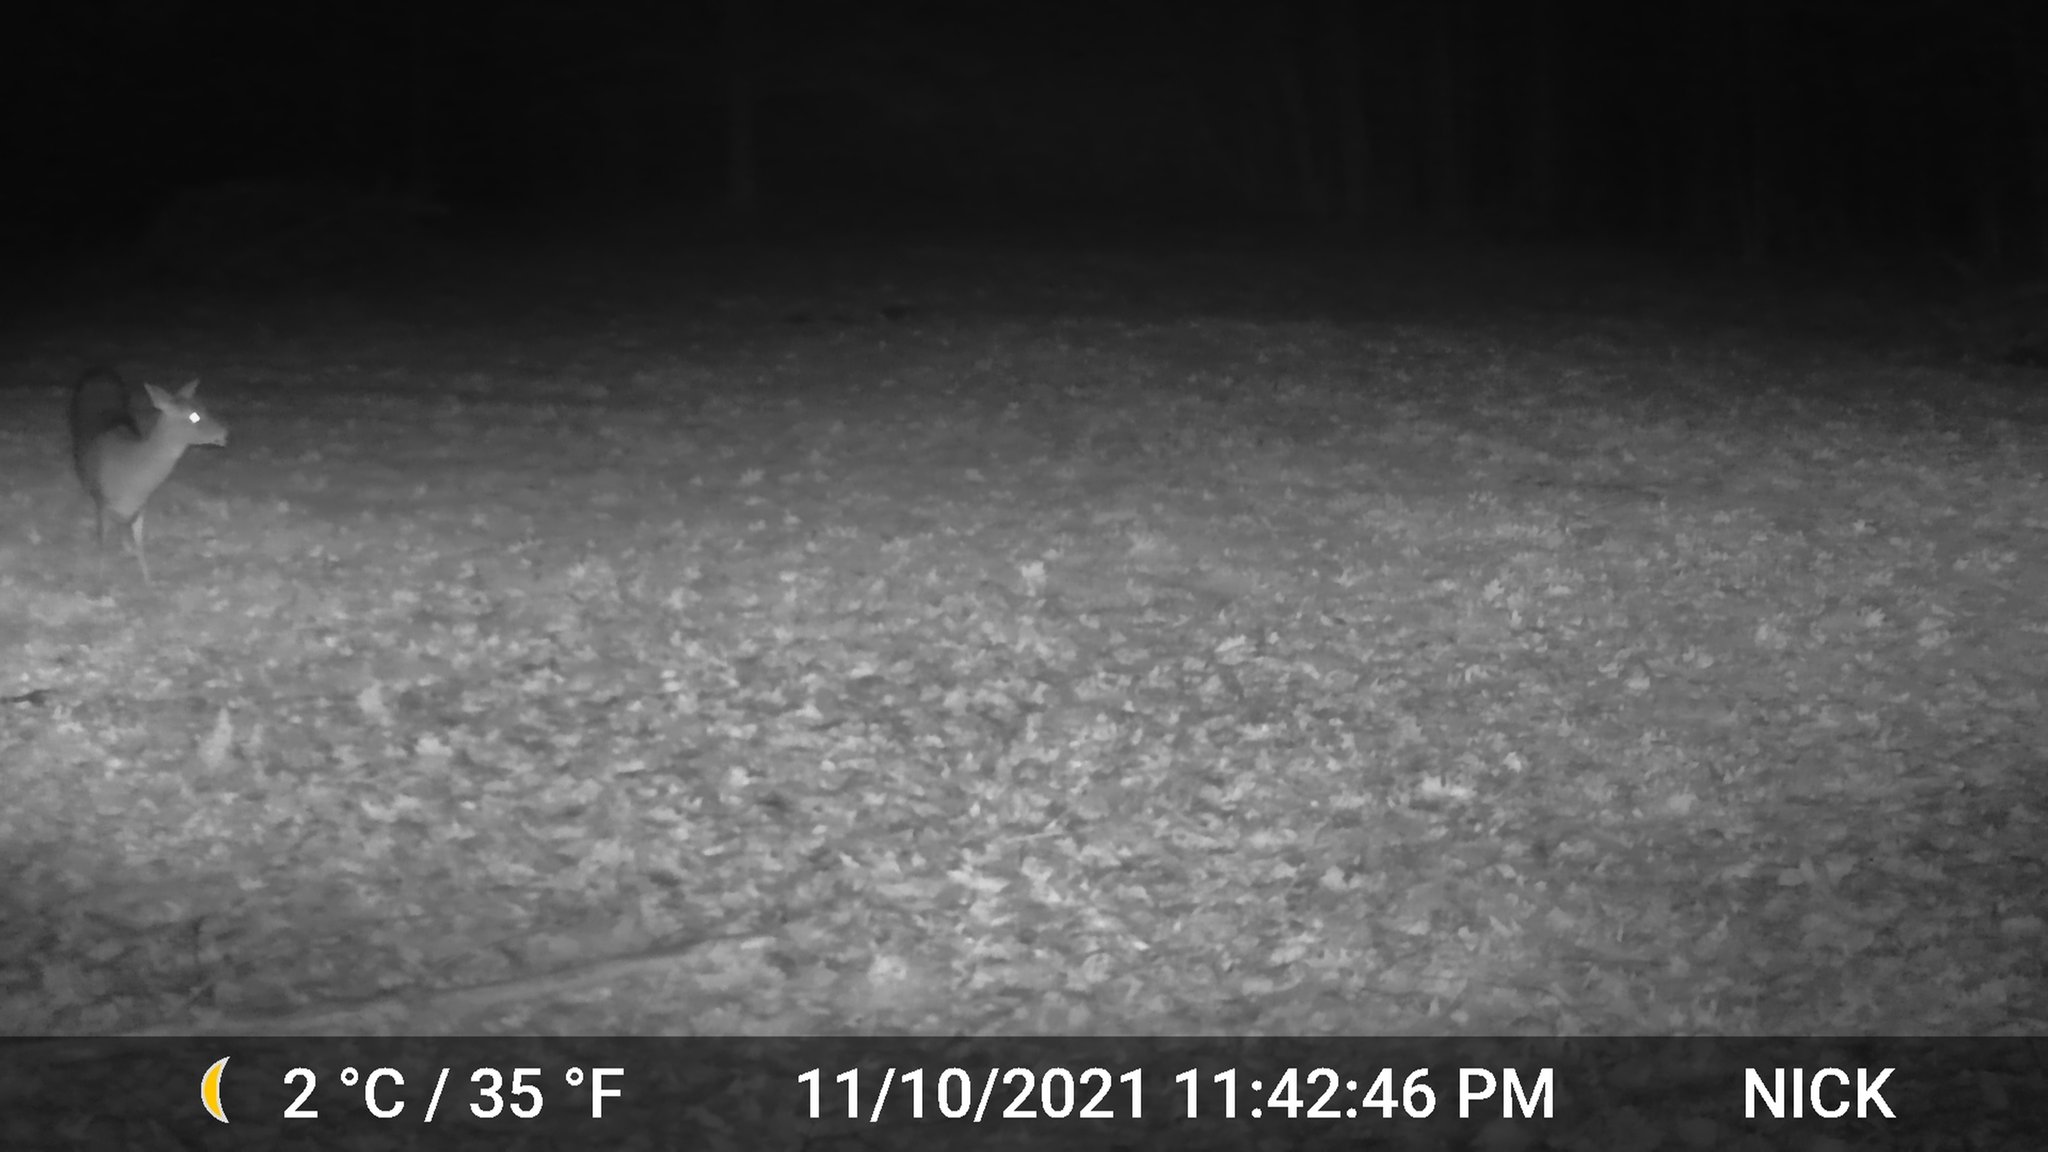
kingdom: Animalia
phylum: Chordata
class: Mammalia
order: Artiodactyla
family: Cervidae
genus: Odocoileus
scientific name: Odocoileus virginianus
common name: White-tailed deer
